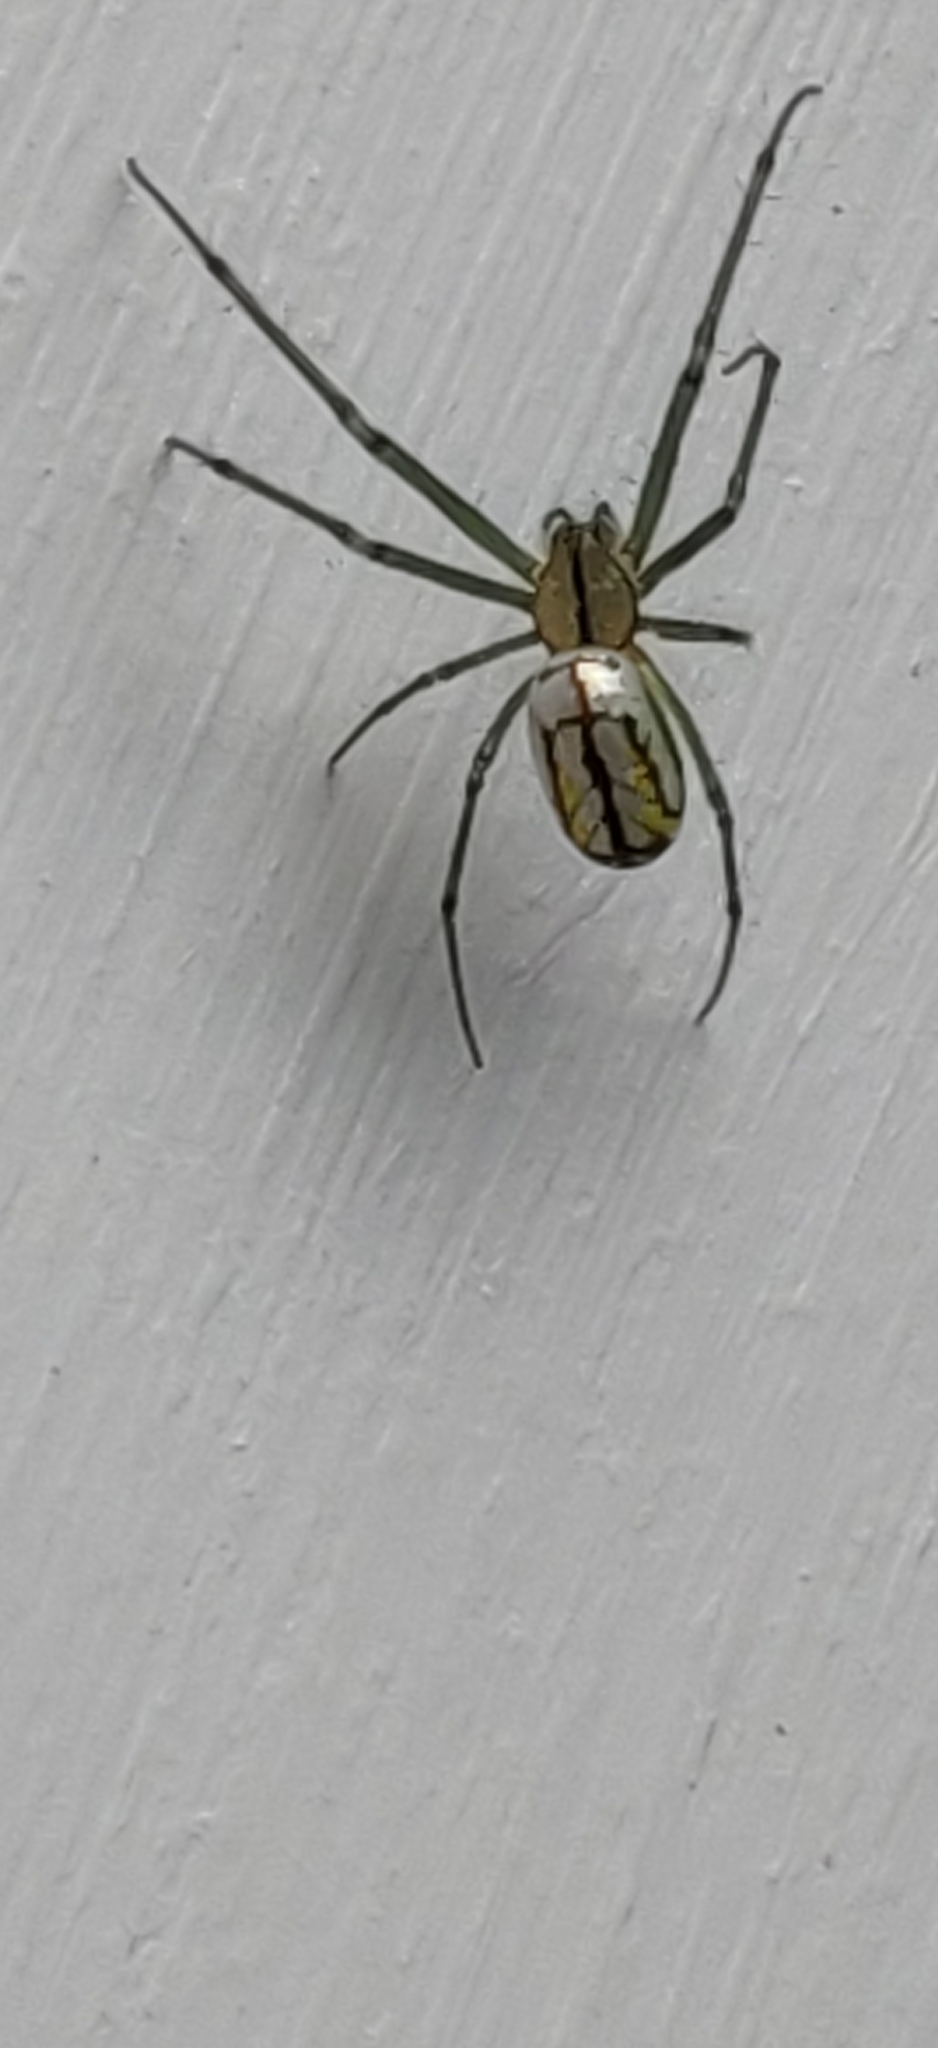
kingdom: Animalia
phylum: Arthropoda
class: Arachnida
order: Araneae
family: Tetragnathidae
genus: Leucauge
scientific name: Leucauge venusta
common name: Longjawed orb weavers
